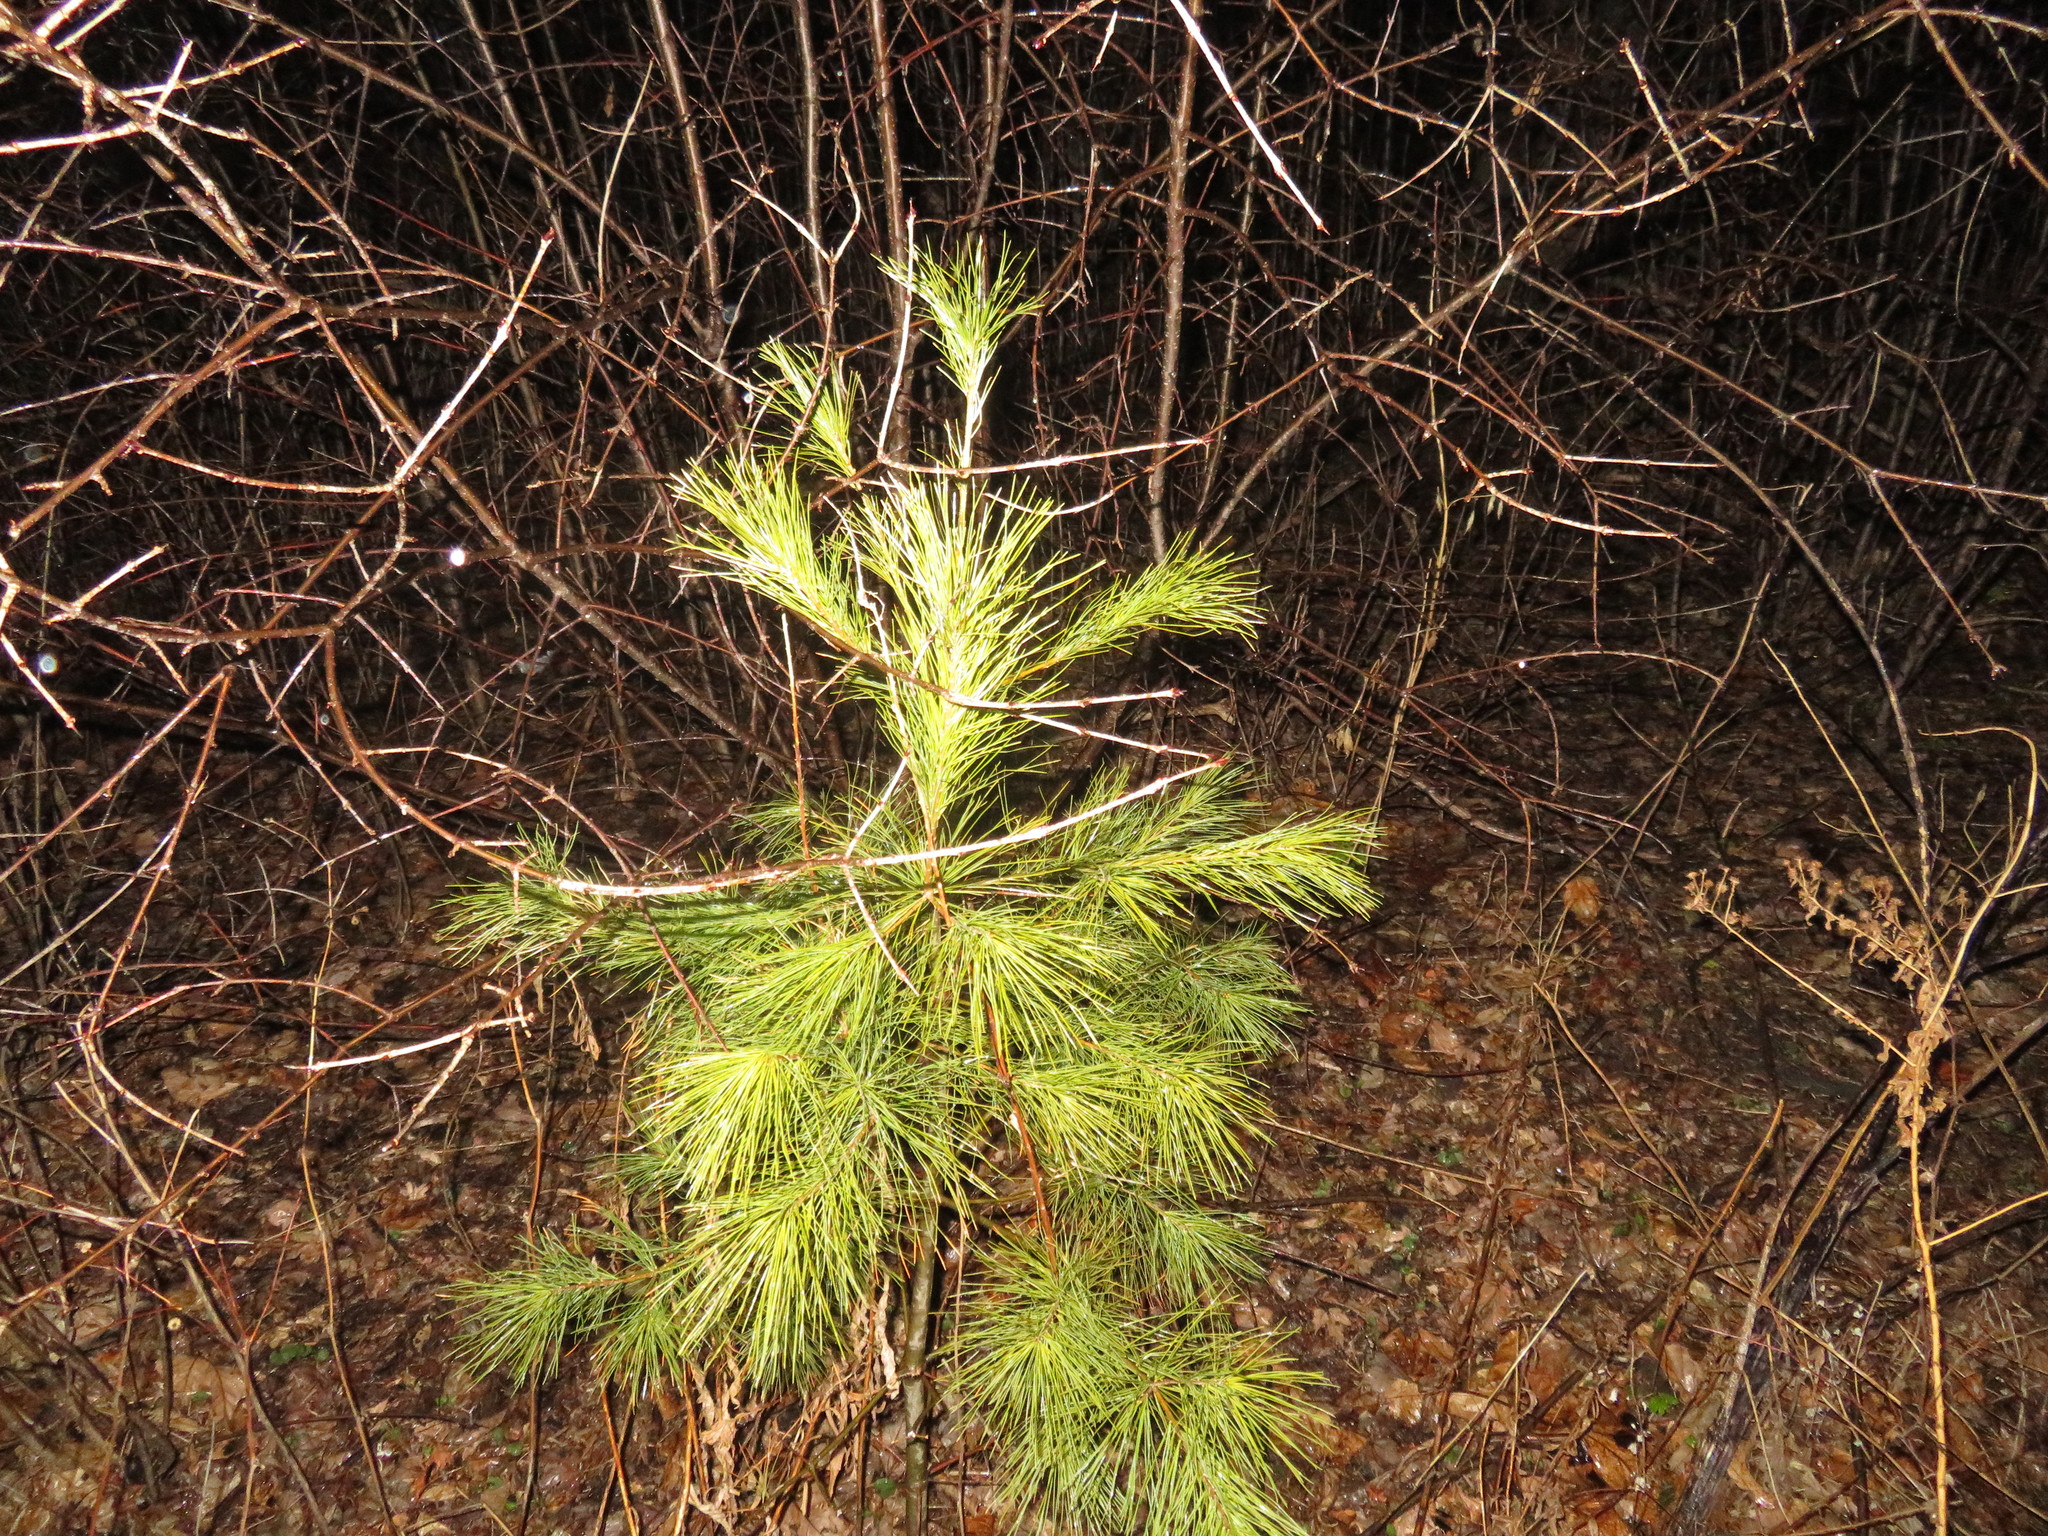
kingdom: Plantae
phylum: Tracheophyta
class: Pinopsida
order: Pinales
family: Pinaceae
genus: Pinus
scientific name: Pinus strobus
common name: Weymouth pine
